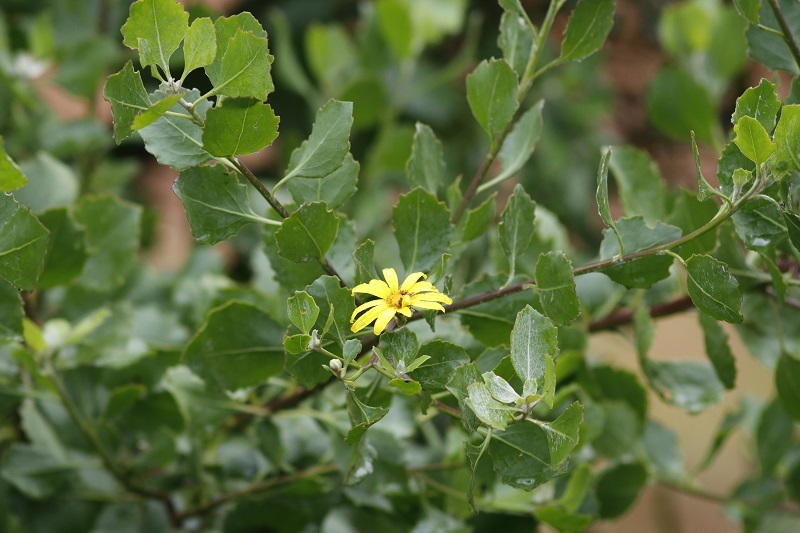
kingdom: Plantae
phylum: Tracheophyta
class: Magnoliopsida
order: Asterales
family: Asteraceae
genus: Osteospermum
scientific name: Osteospermum moniliferum
